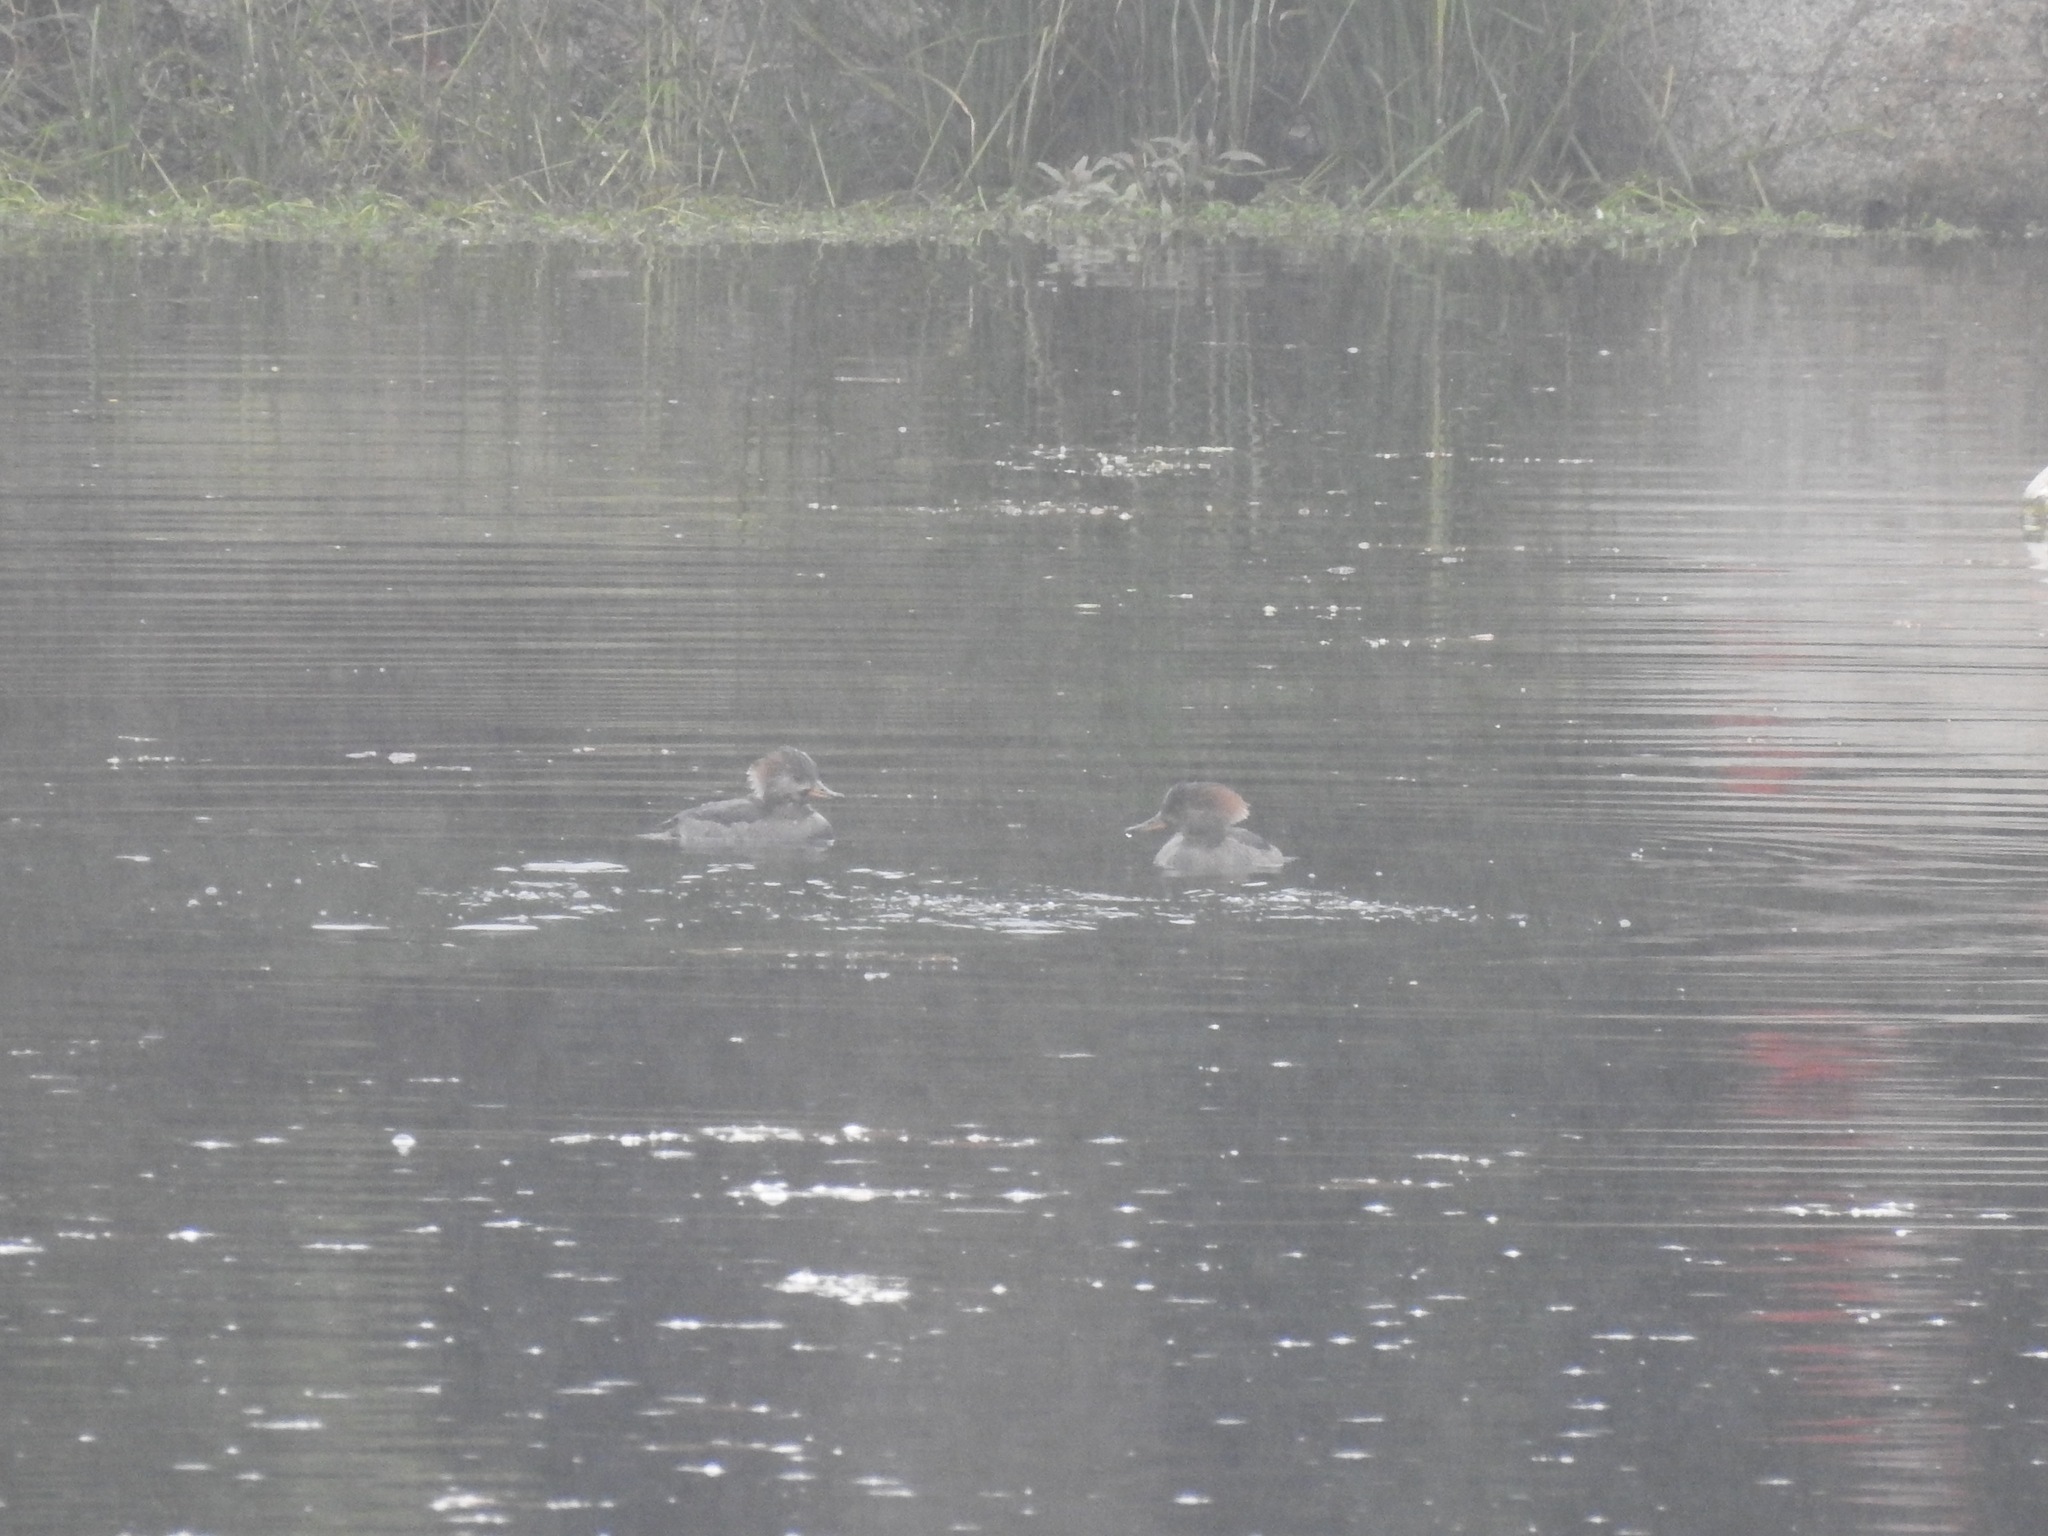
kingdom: Animalia
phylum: Chordata
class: Aves
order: Anseriformes
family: Anatidae
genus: Lophodytes
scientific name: Lophodytes cucullatus
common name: Hooded merganser
